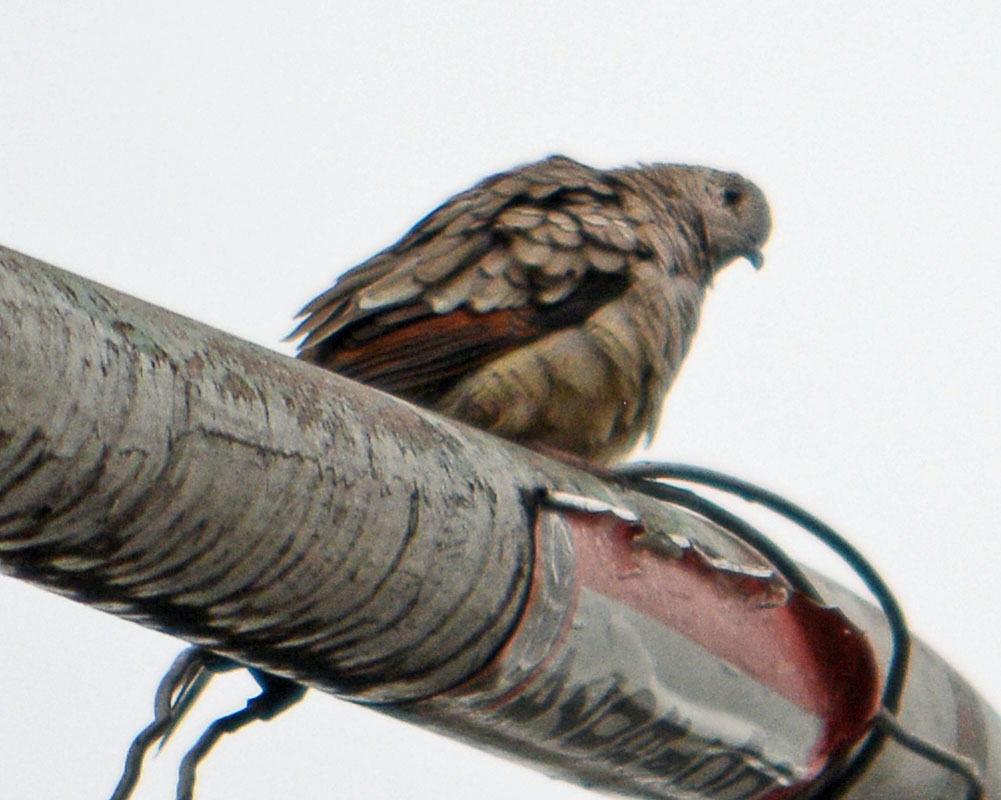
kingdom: Animalia
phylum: Chordata
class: Aves
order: Columbiformes
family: Columbidae
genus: Columbina
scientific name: Columbina inca
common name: Inca dove
